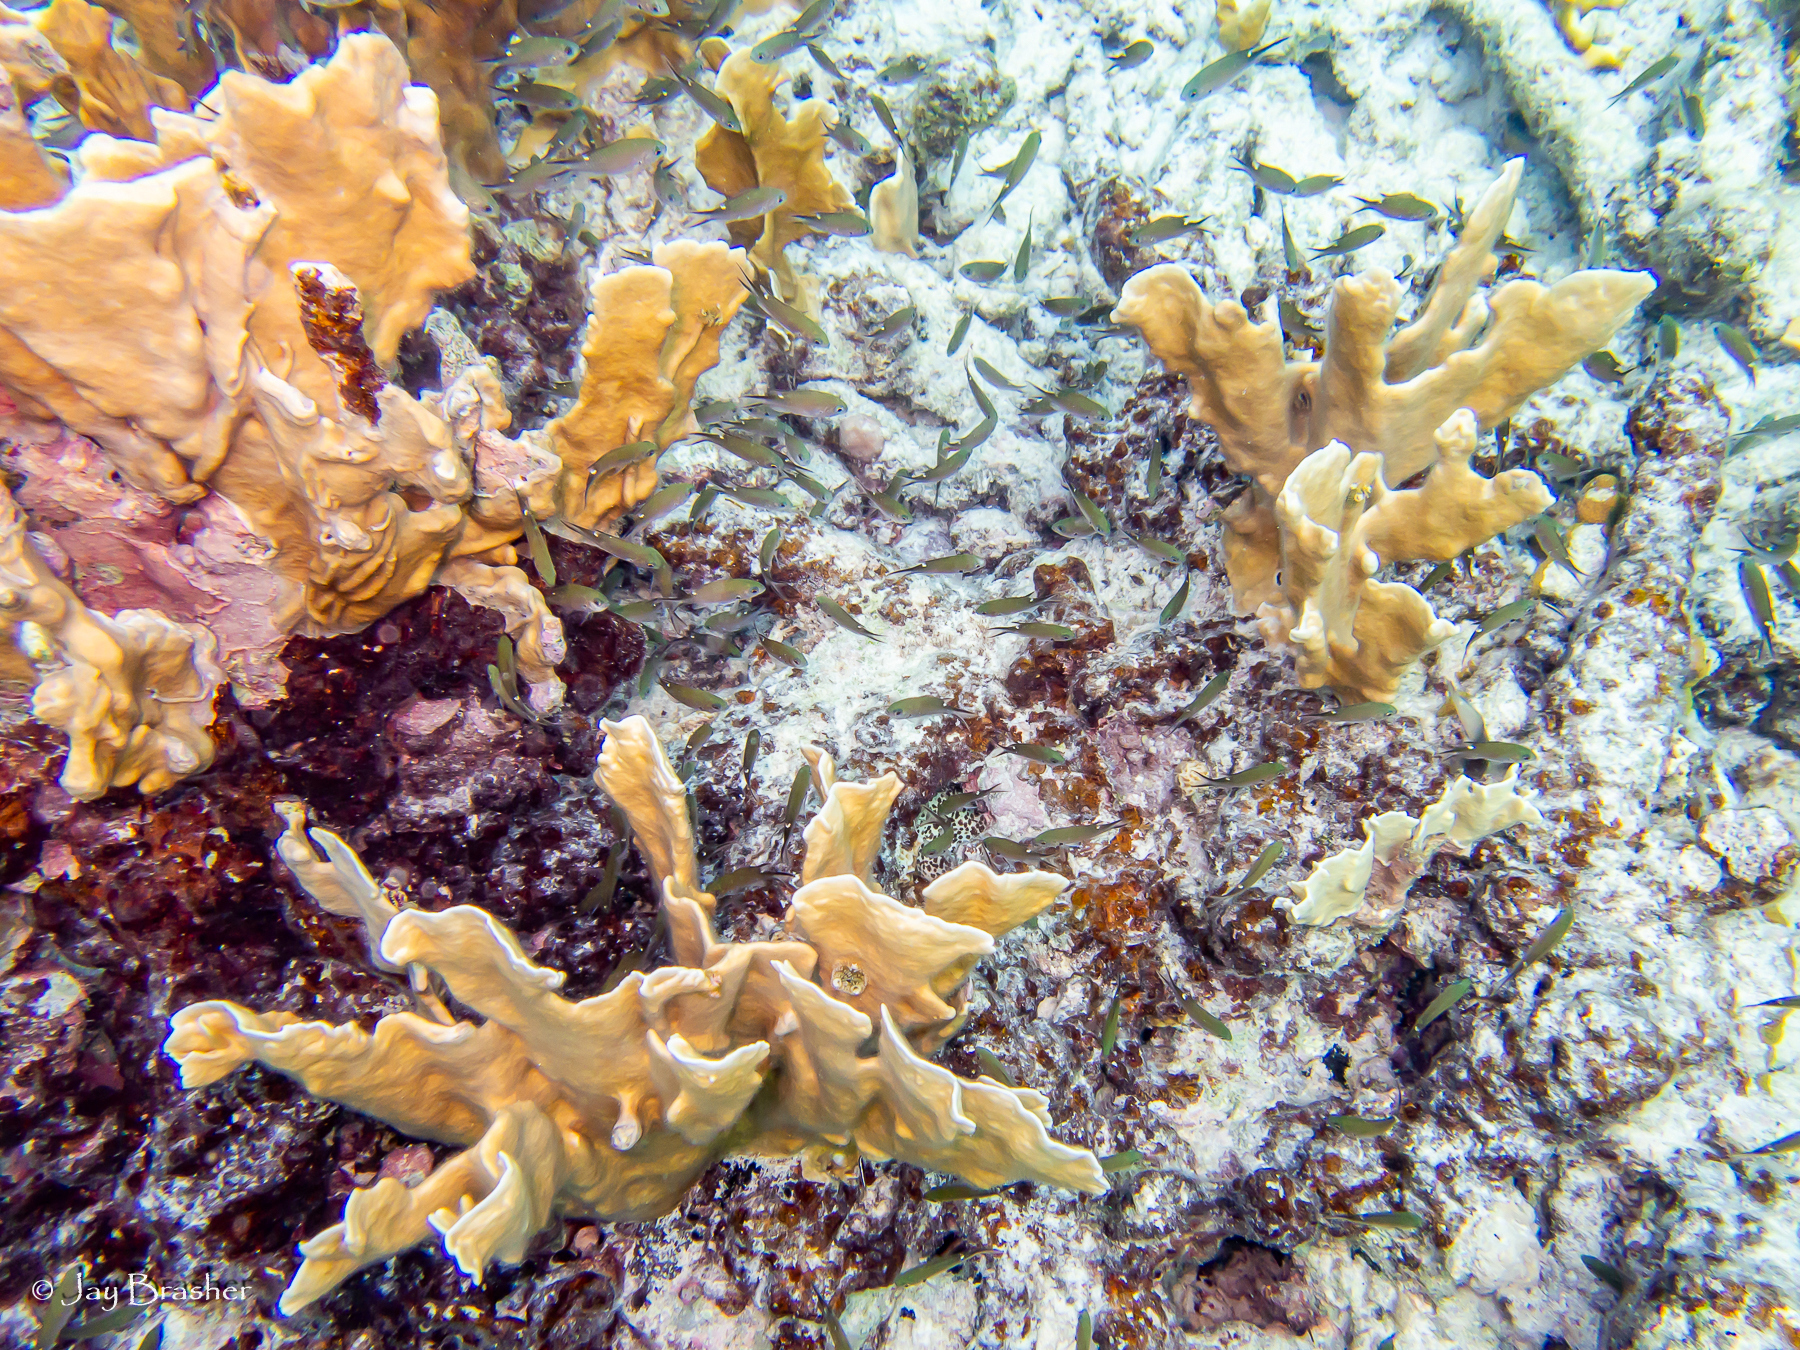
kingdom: Animalia
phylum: Cnidaria
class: Hydrozoa
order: Anthoathecata
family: Milleporidae
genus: Millepora
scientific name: Millepora complanata
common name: Bladed fire coral
